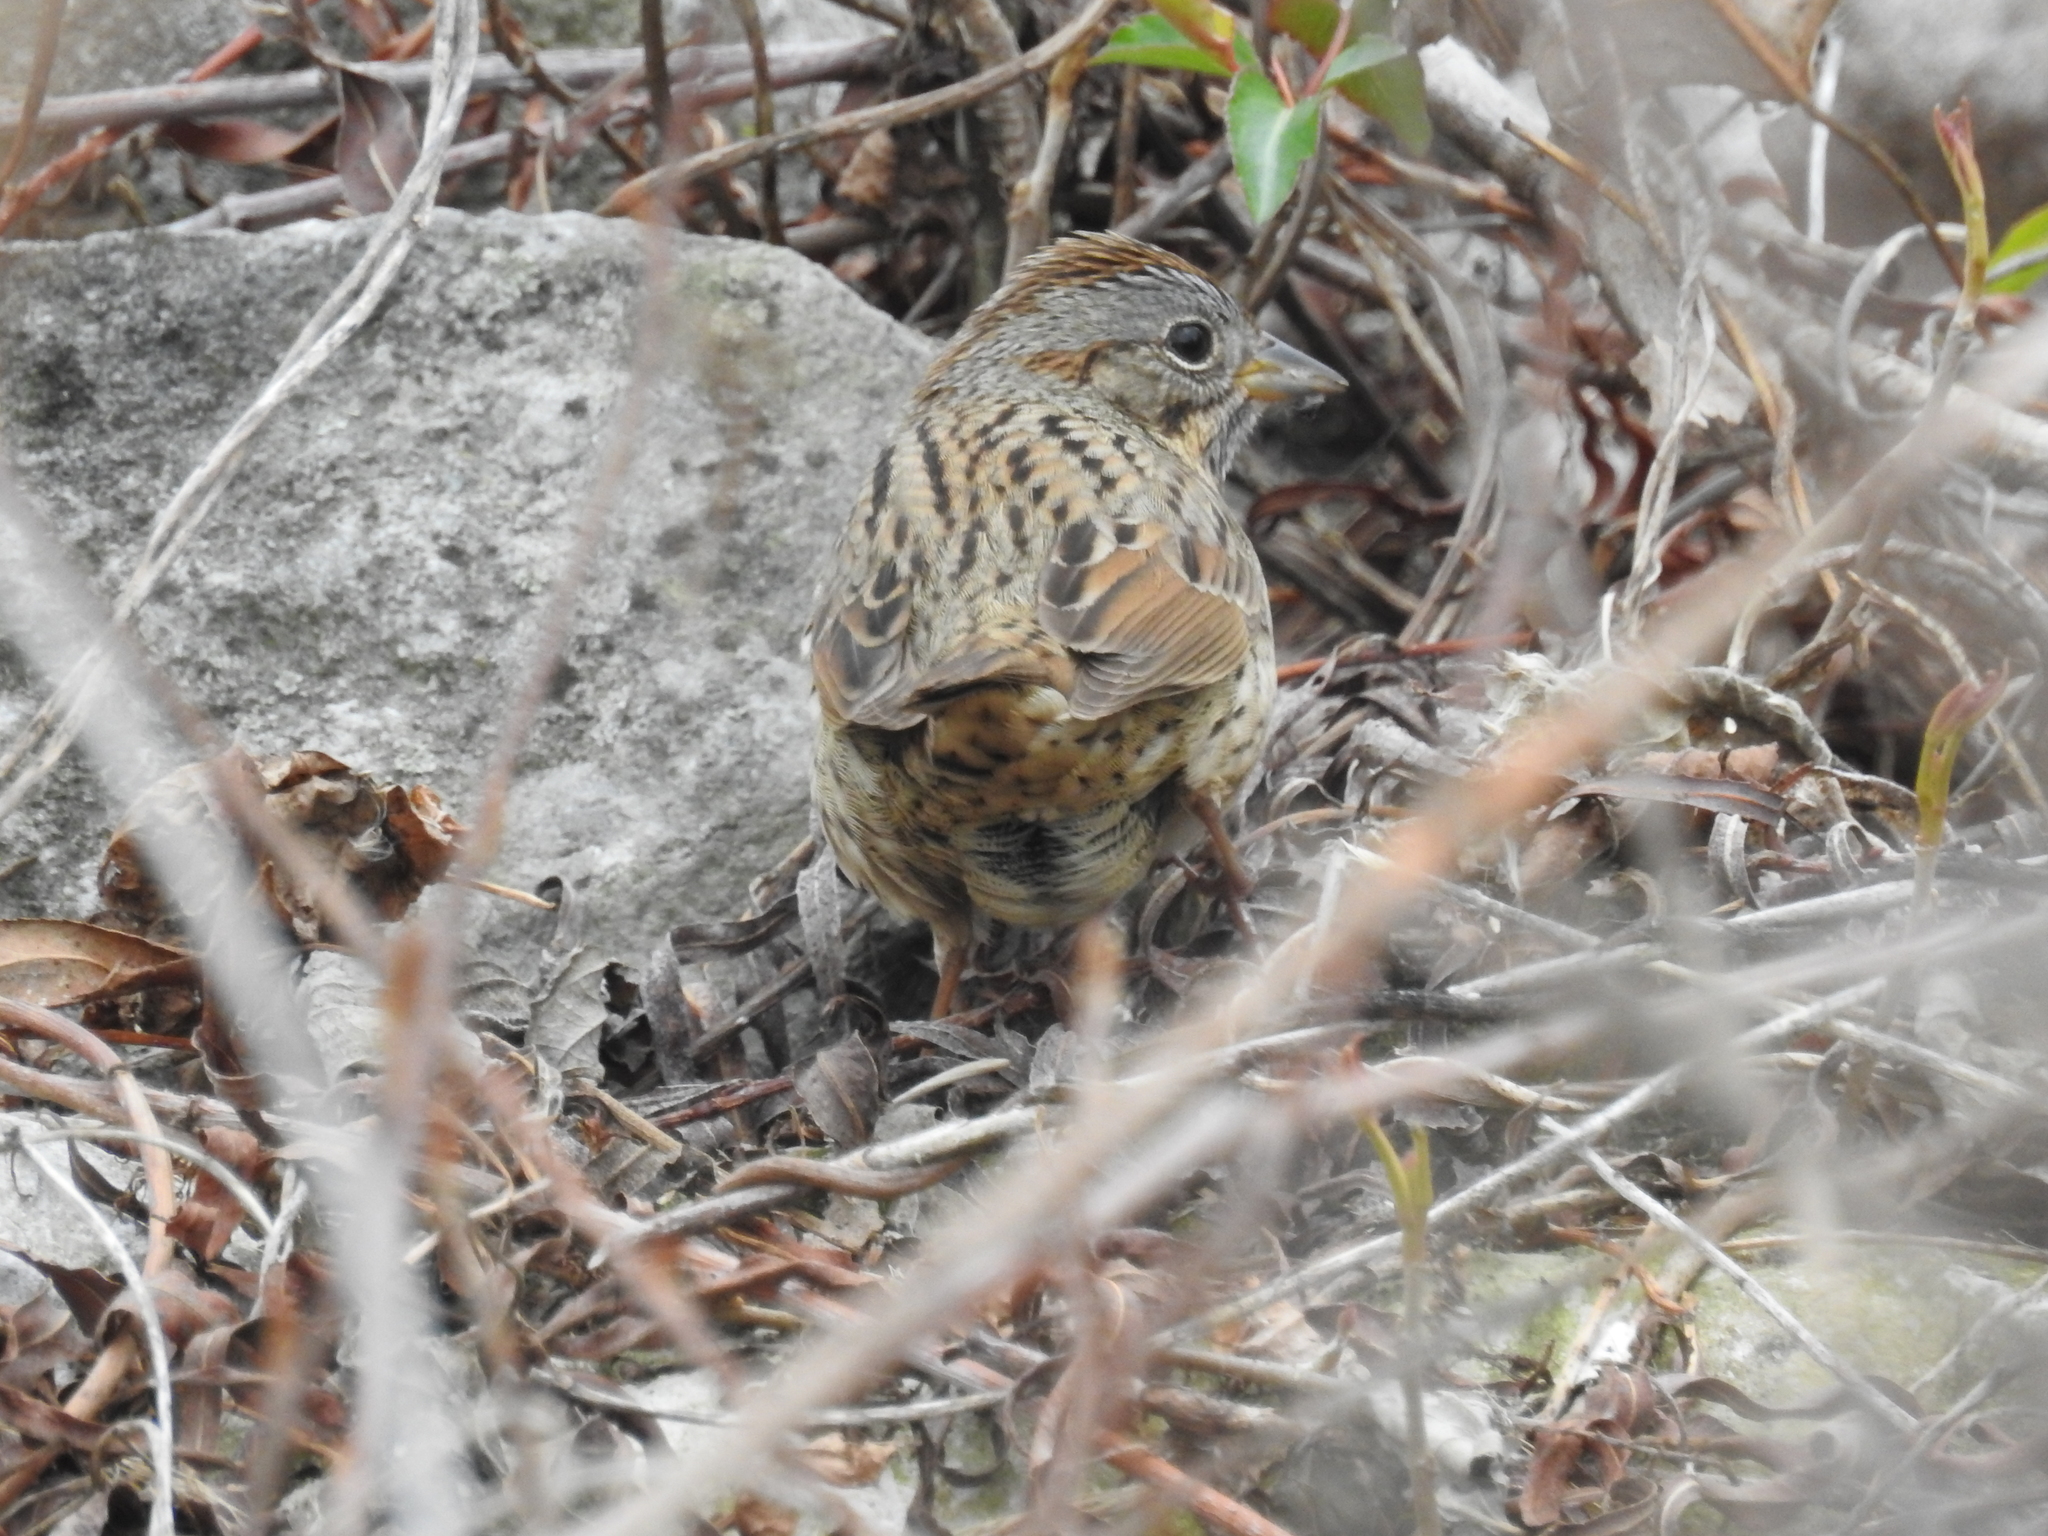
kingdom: Animalia
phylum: Chordata
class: Aves
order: Passeriformes
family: Passerellidae
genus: Melospiza
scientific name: Melospiza lincolnii
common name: Lincoln's sparrow
